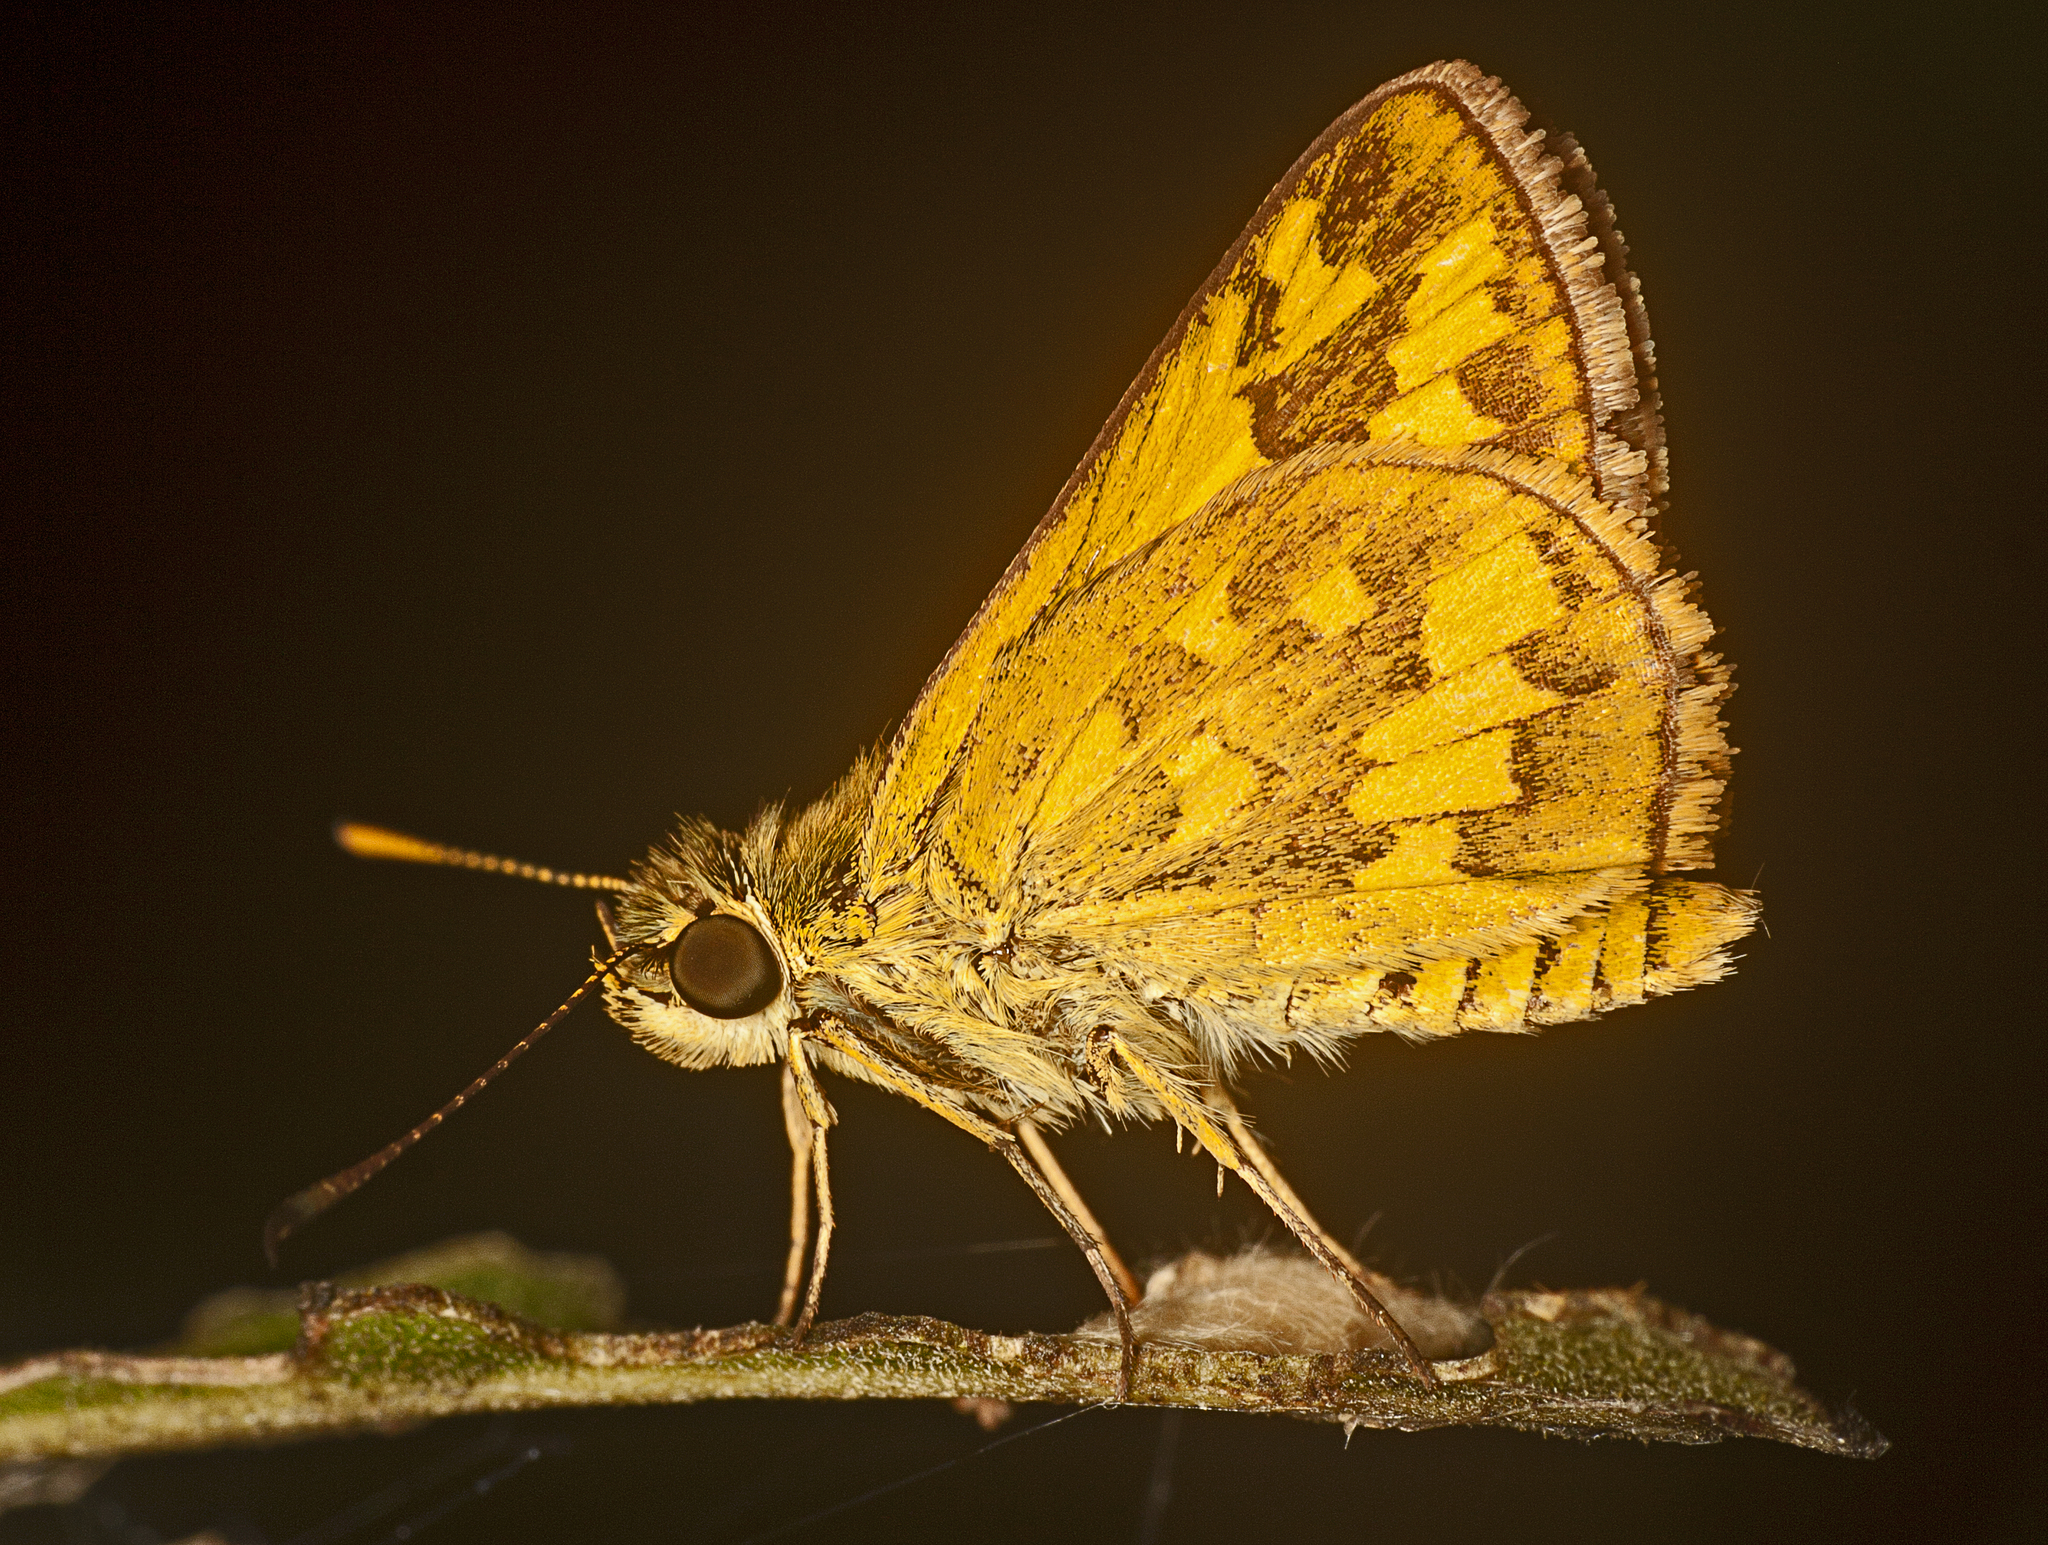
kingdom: Animalia
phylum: Arthropoda
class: Insecta
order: Lepidoptera
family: Hesperiidae
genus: Suniana
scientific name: Suniana sunias
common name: Wide-brand grass-dart
